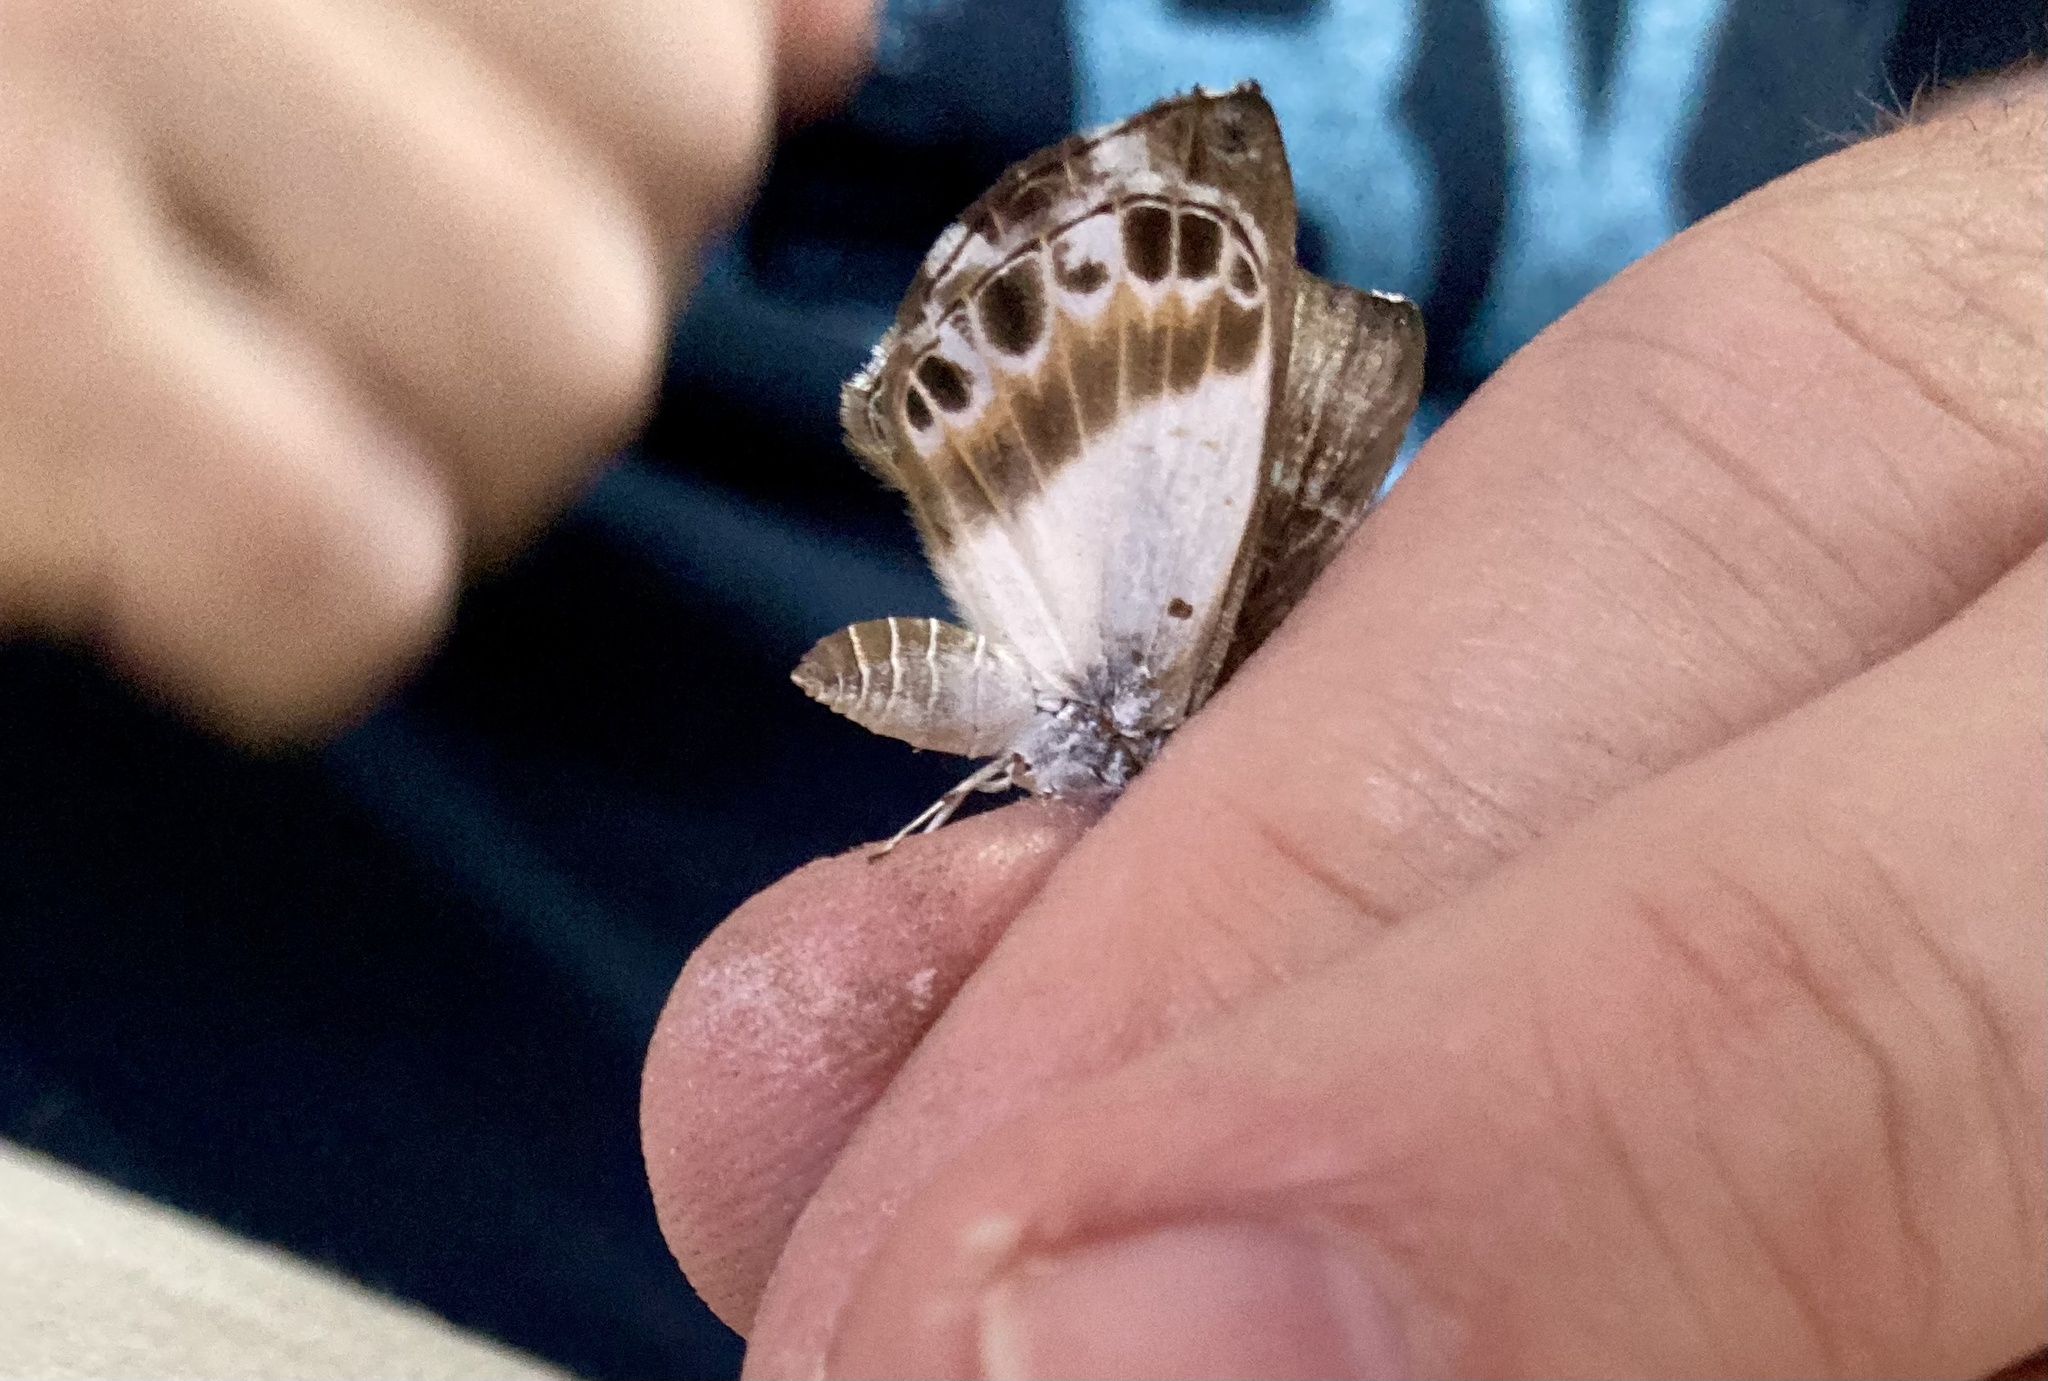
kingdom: Animalia
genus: Nymphidium
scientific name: Nymphidium azanoides
